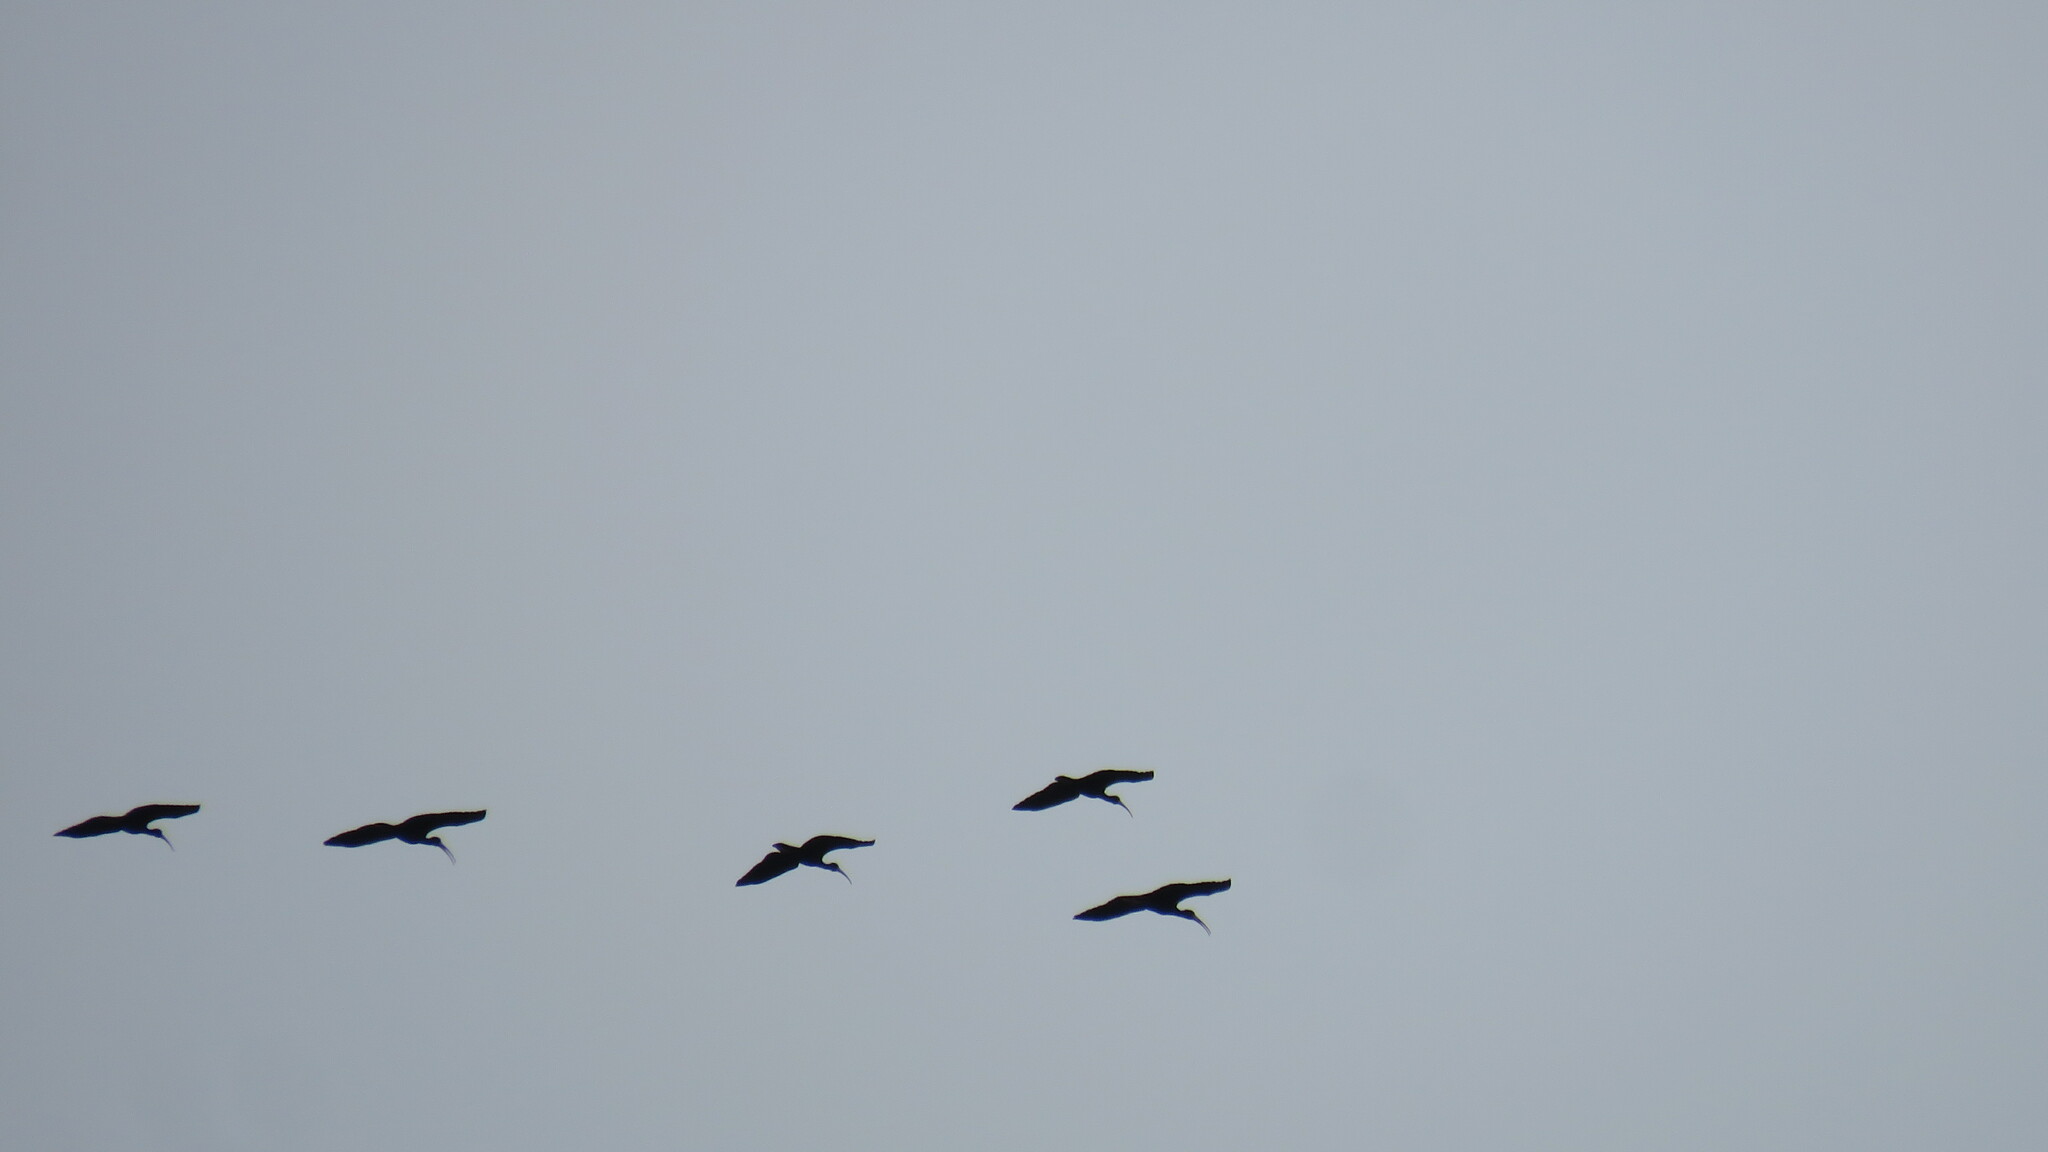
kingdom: Animalia
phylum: Chordata
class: Aves
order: Pelecaniformes
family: Threskiornithidae
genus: Phimosus
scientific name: Phimosus infuscatus
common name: Bare-faced ibis
